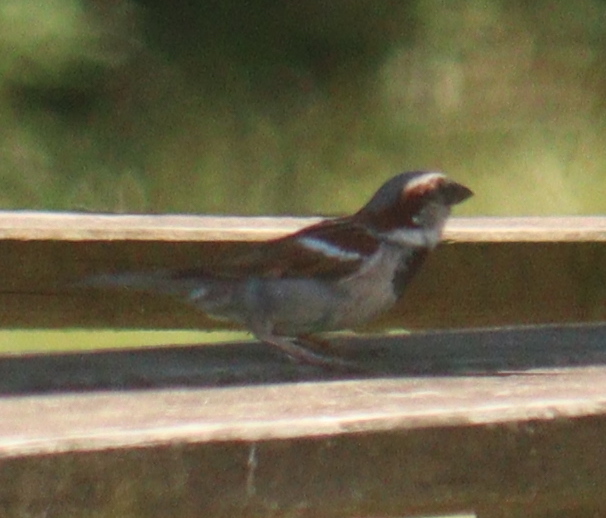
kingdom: Animalia
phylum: Chordata
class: Aves
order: Passeriformes
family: Passeridae
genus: Passer
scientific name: Passer domesticus
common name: House sparrow
